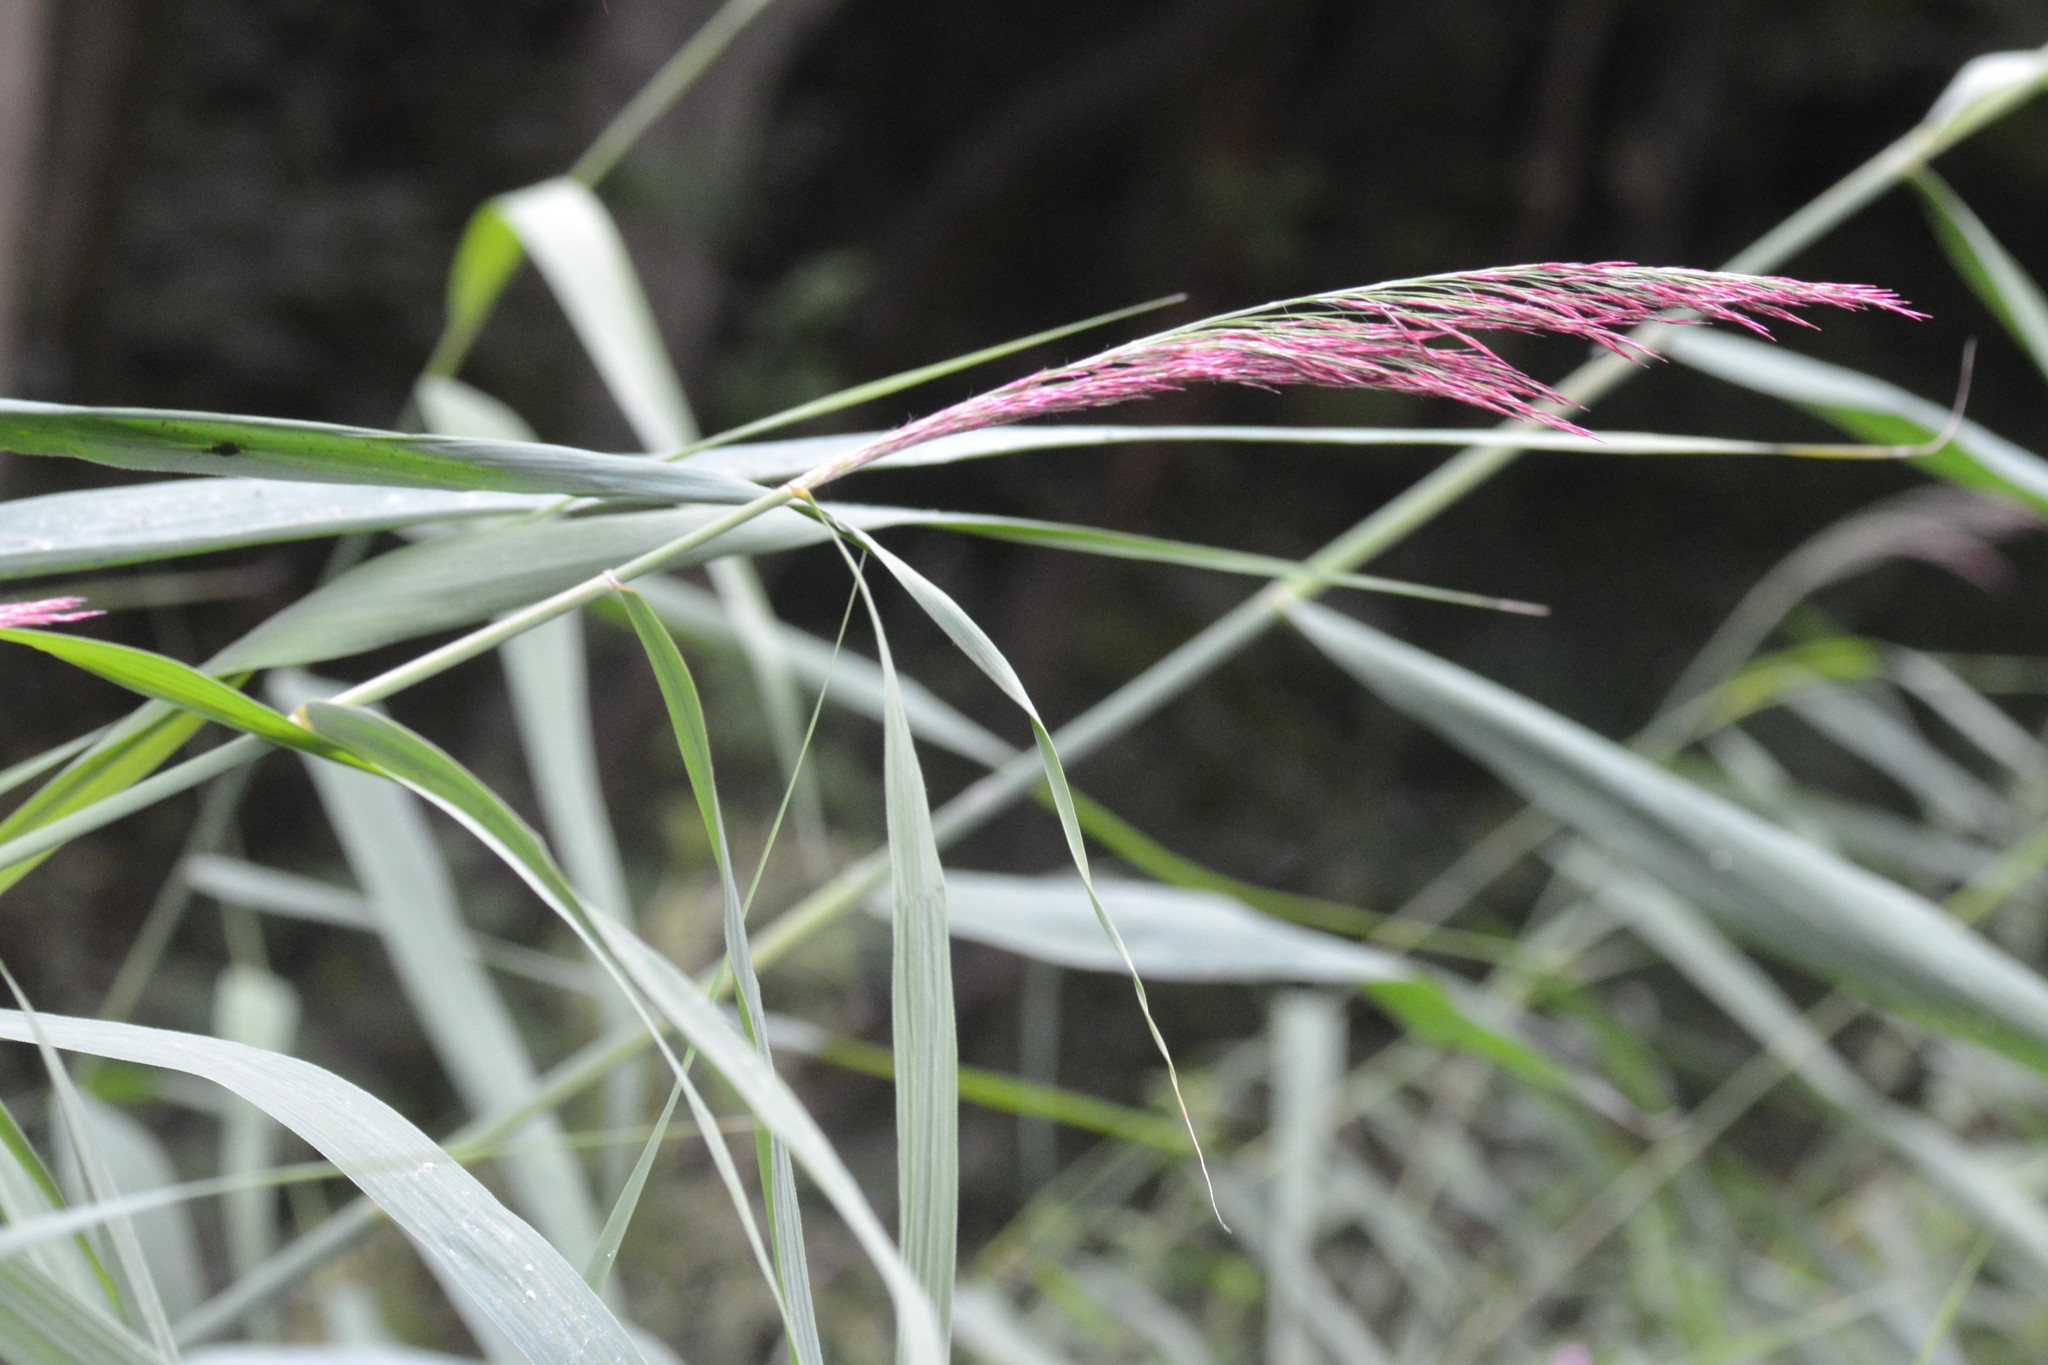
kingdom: Plantae
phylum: Tracheophyta
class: Liliopsida
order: Poales
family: Poaceae
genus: Phragmites
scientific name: Phragmites australis
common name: Common reed
